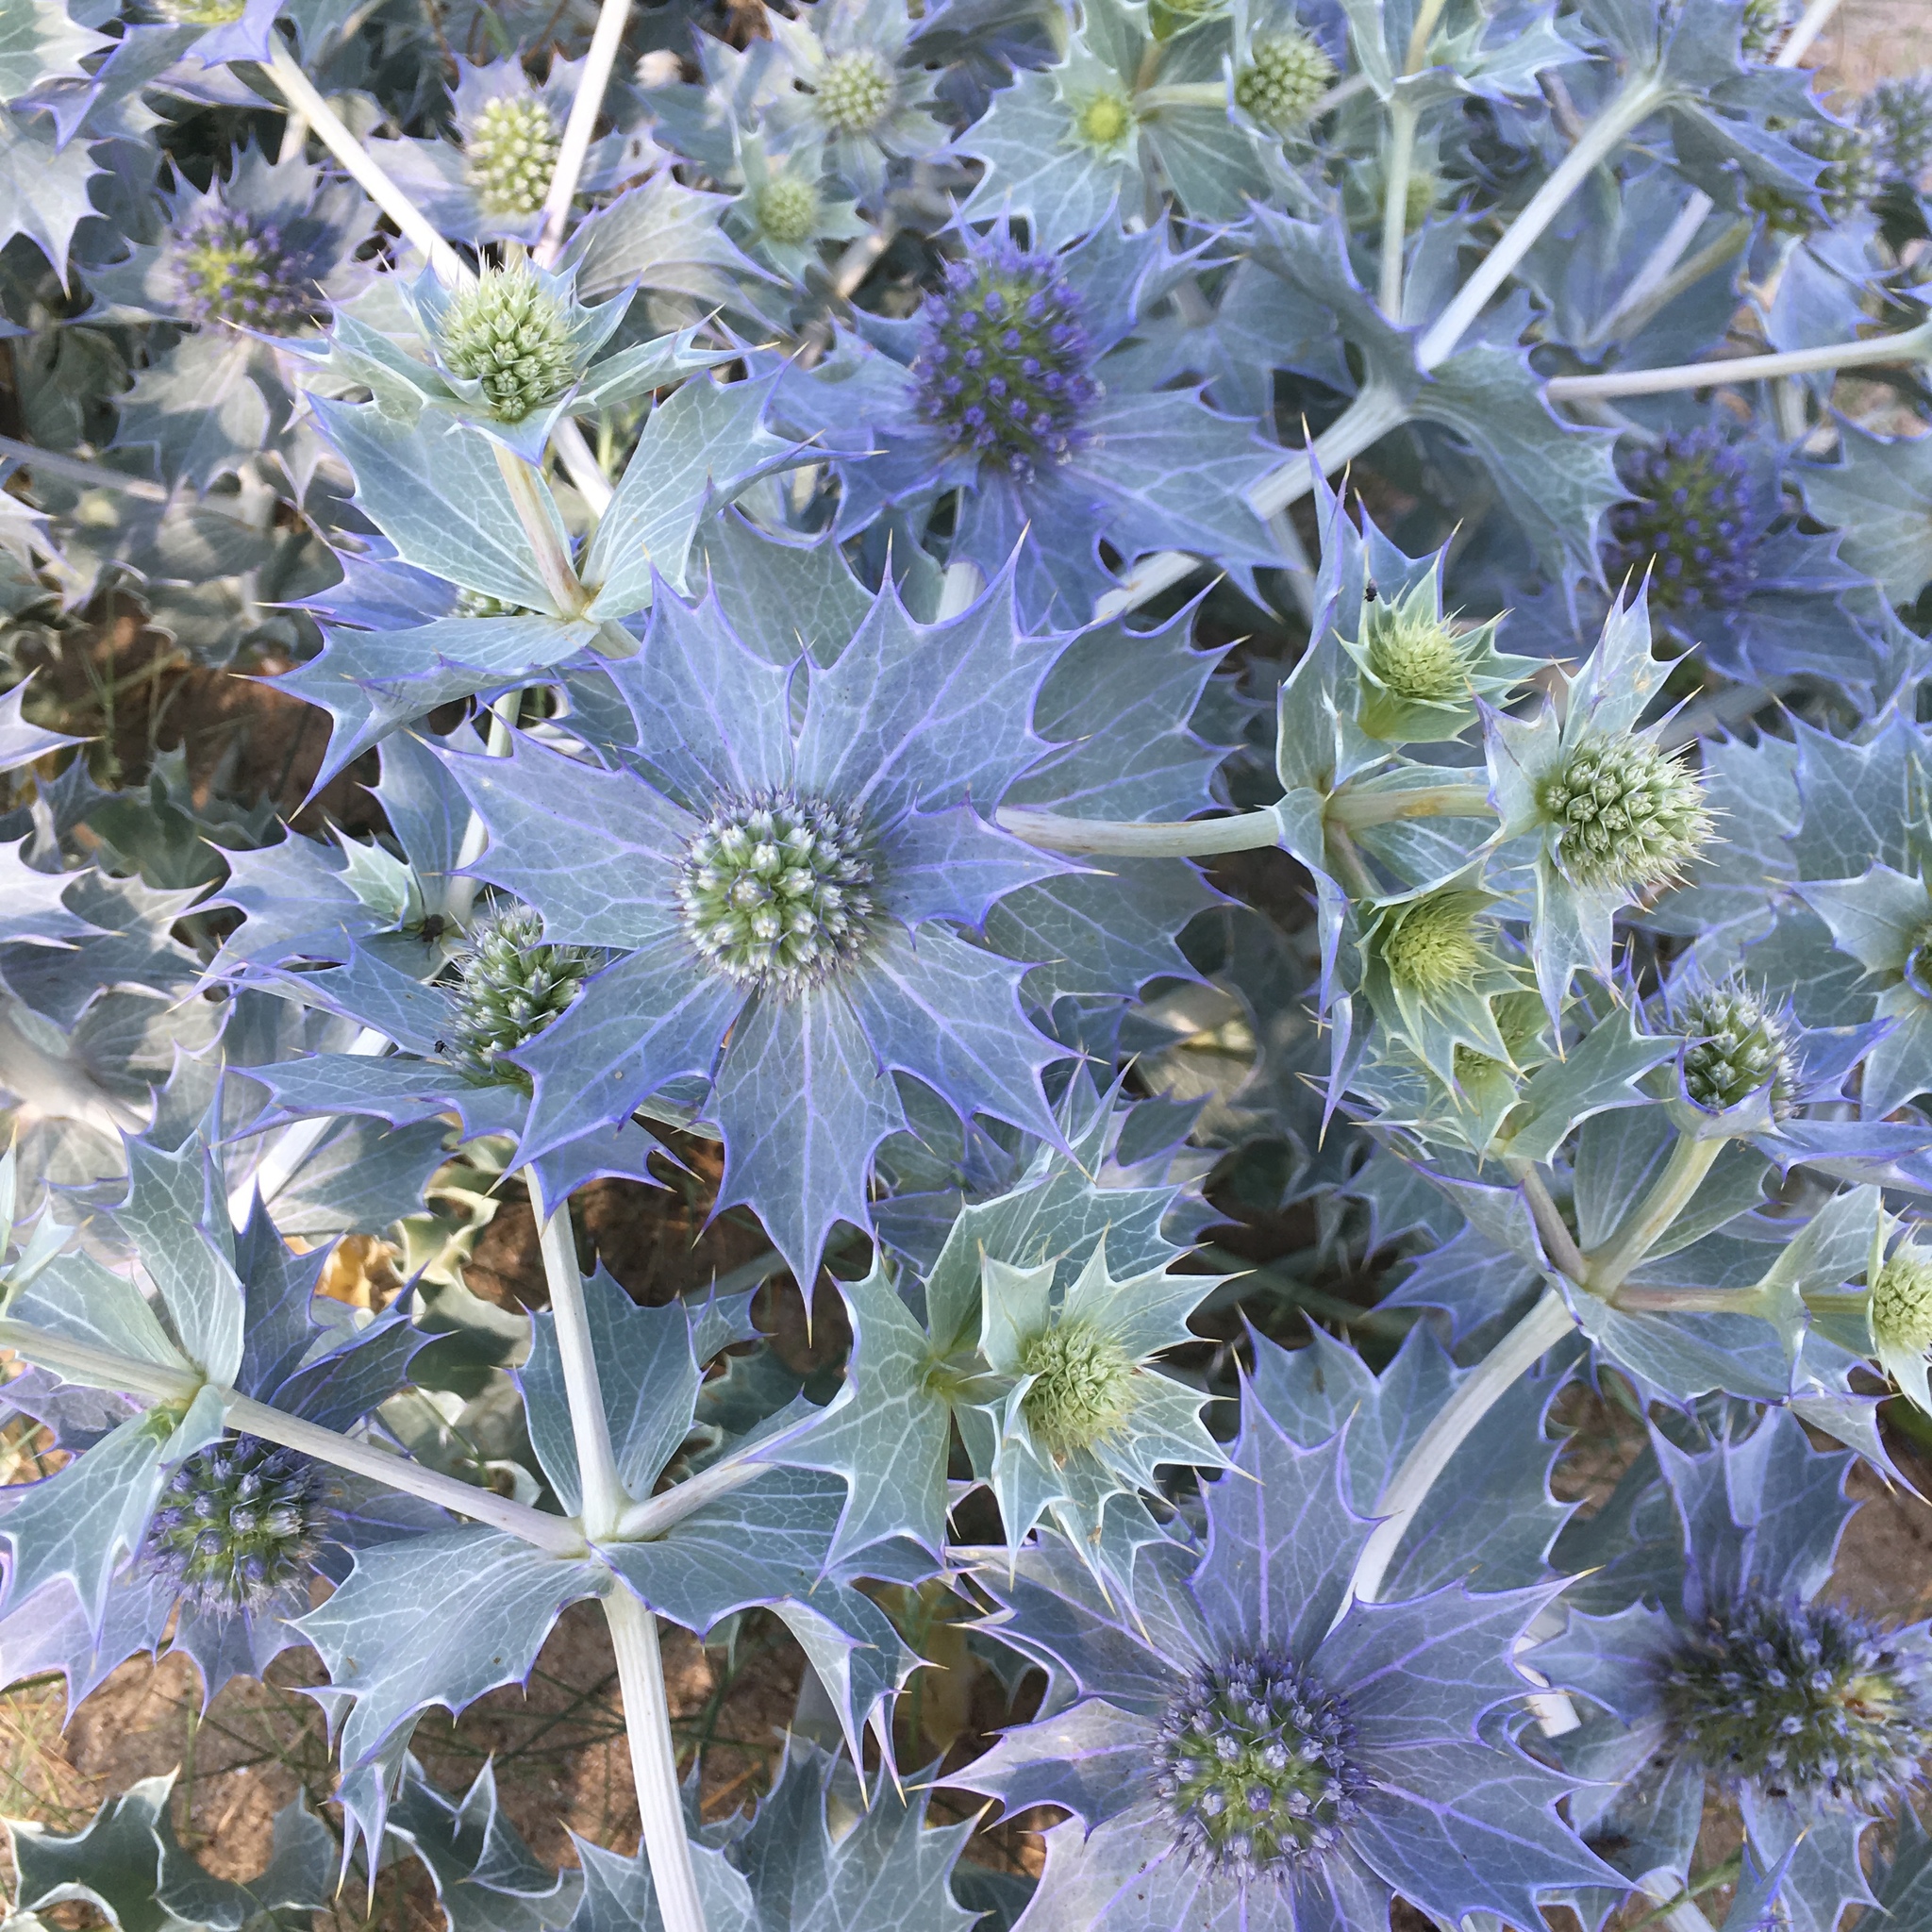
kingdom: Plantae
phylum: Tracheophyta
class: Magnoliopsida
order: Apiales
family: Apiaceae
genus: Eryngium
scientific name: Eryngium maritimum
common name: Sea-holly
